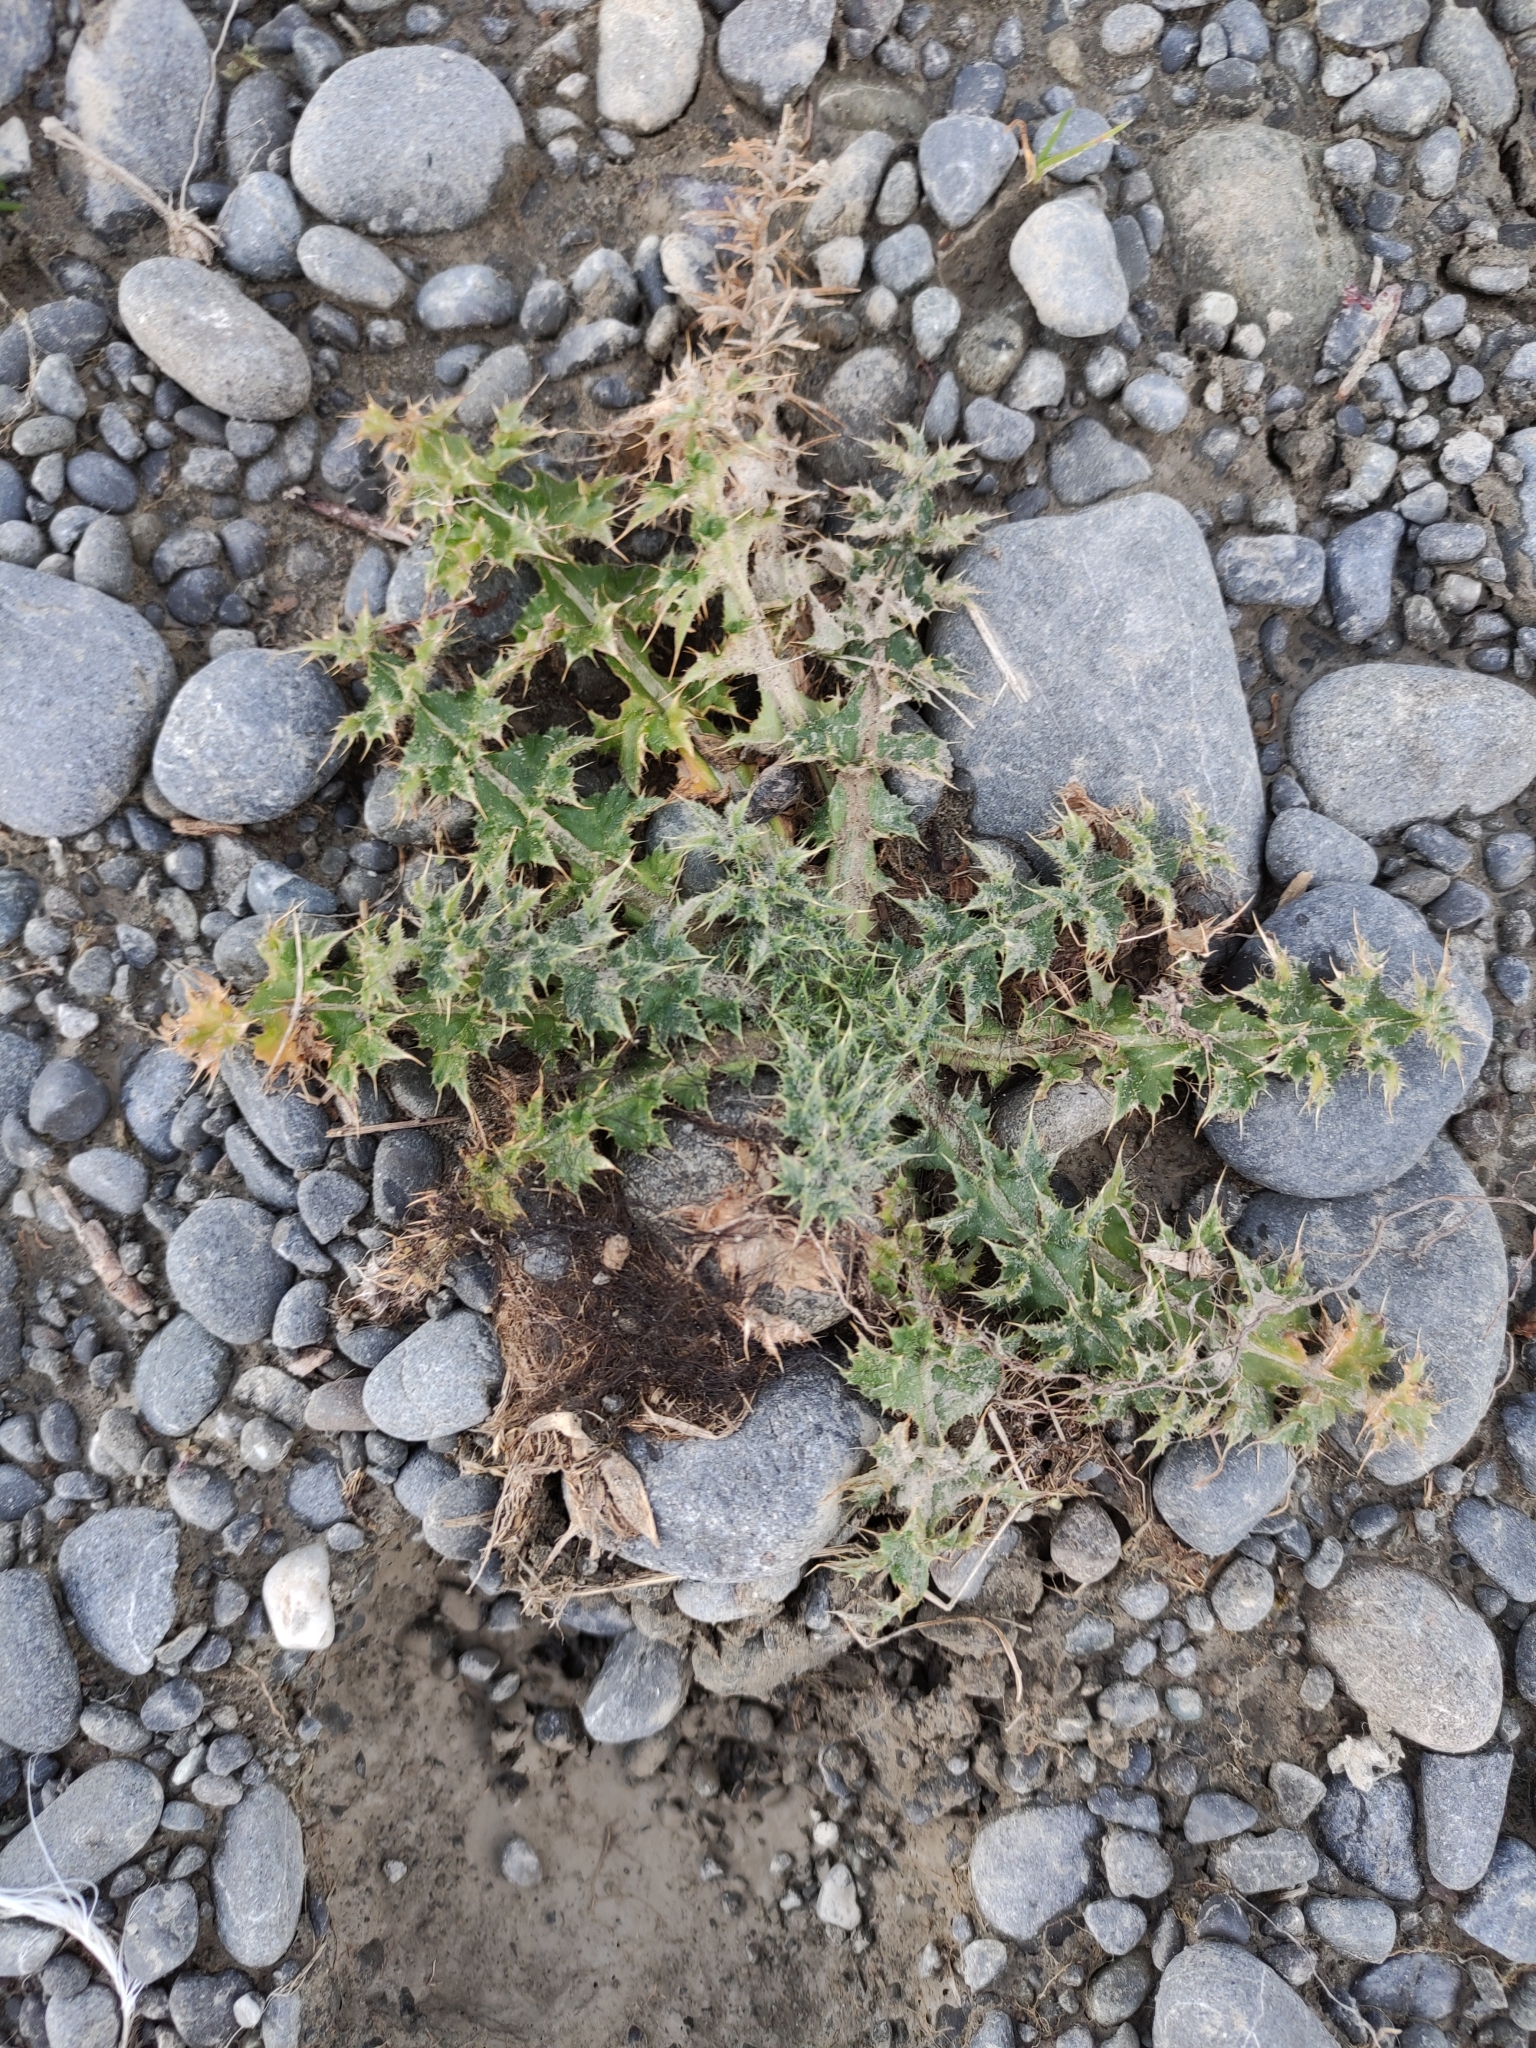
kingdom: Plantae
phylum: Tracheophyta
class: Magnoliopsida
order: Asterales
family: Asteraceae
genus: Cirsium
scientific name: Cirsium vulgare
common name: Bull thistle
